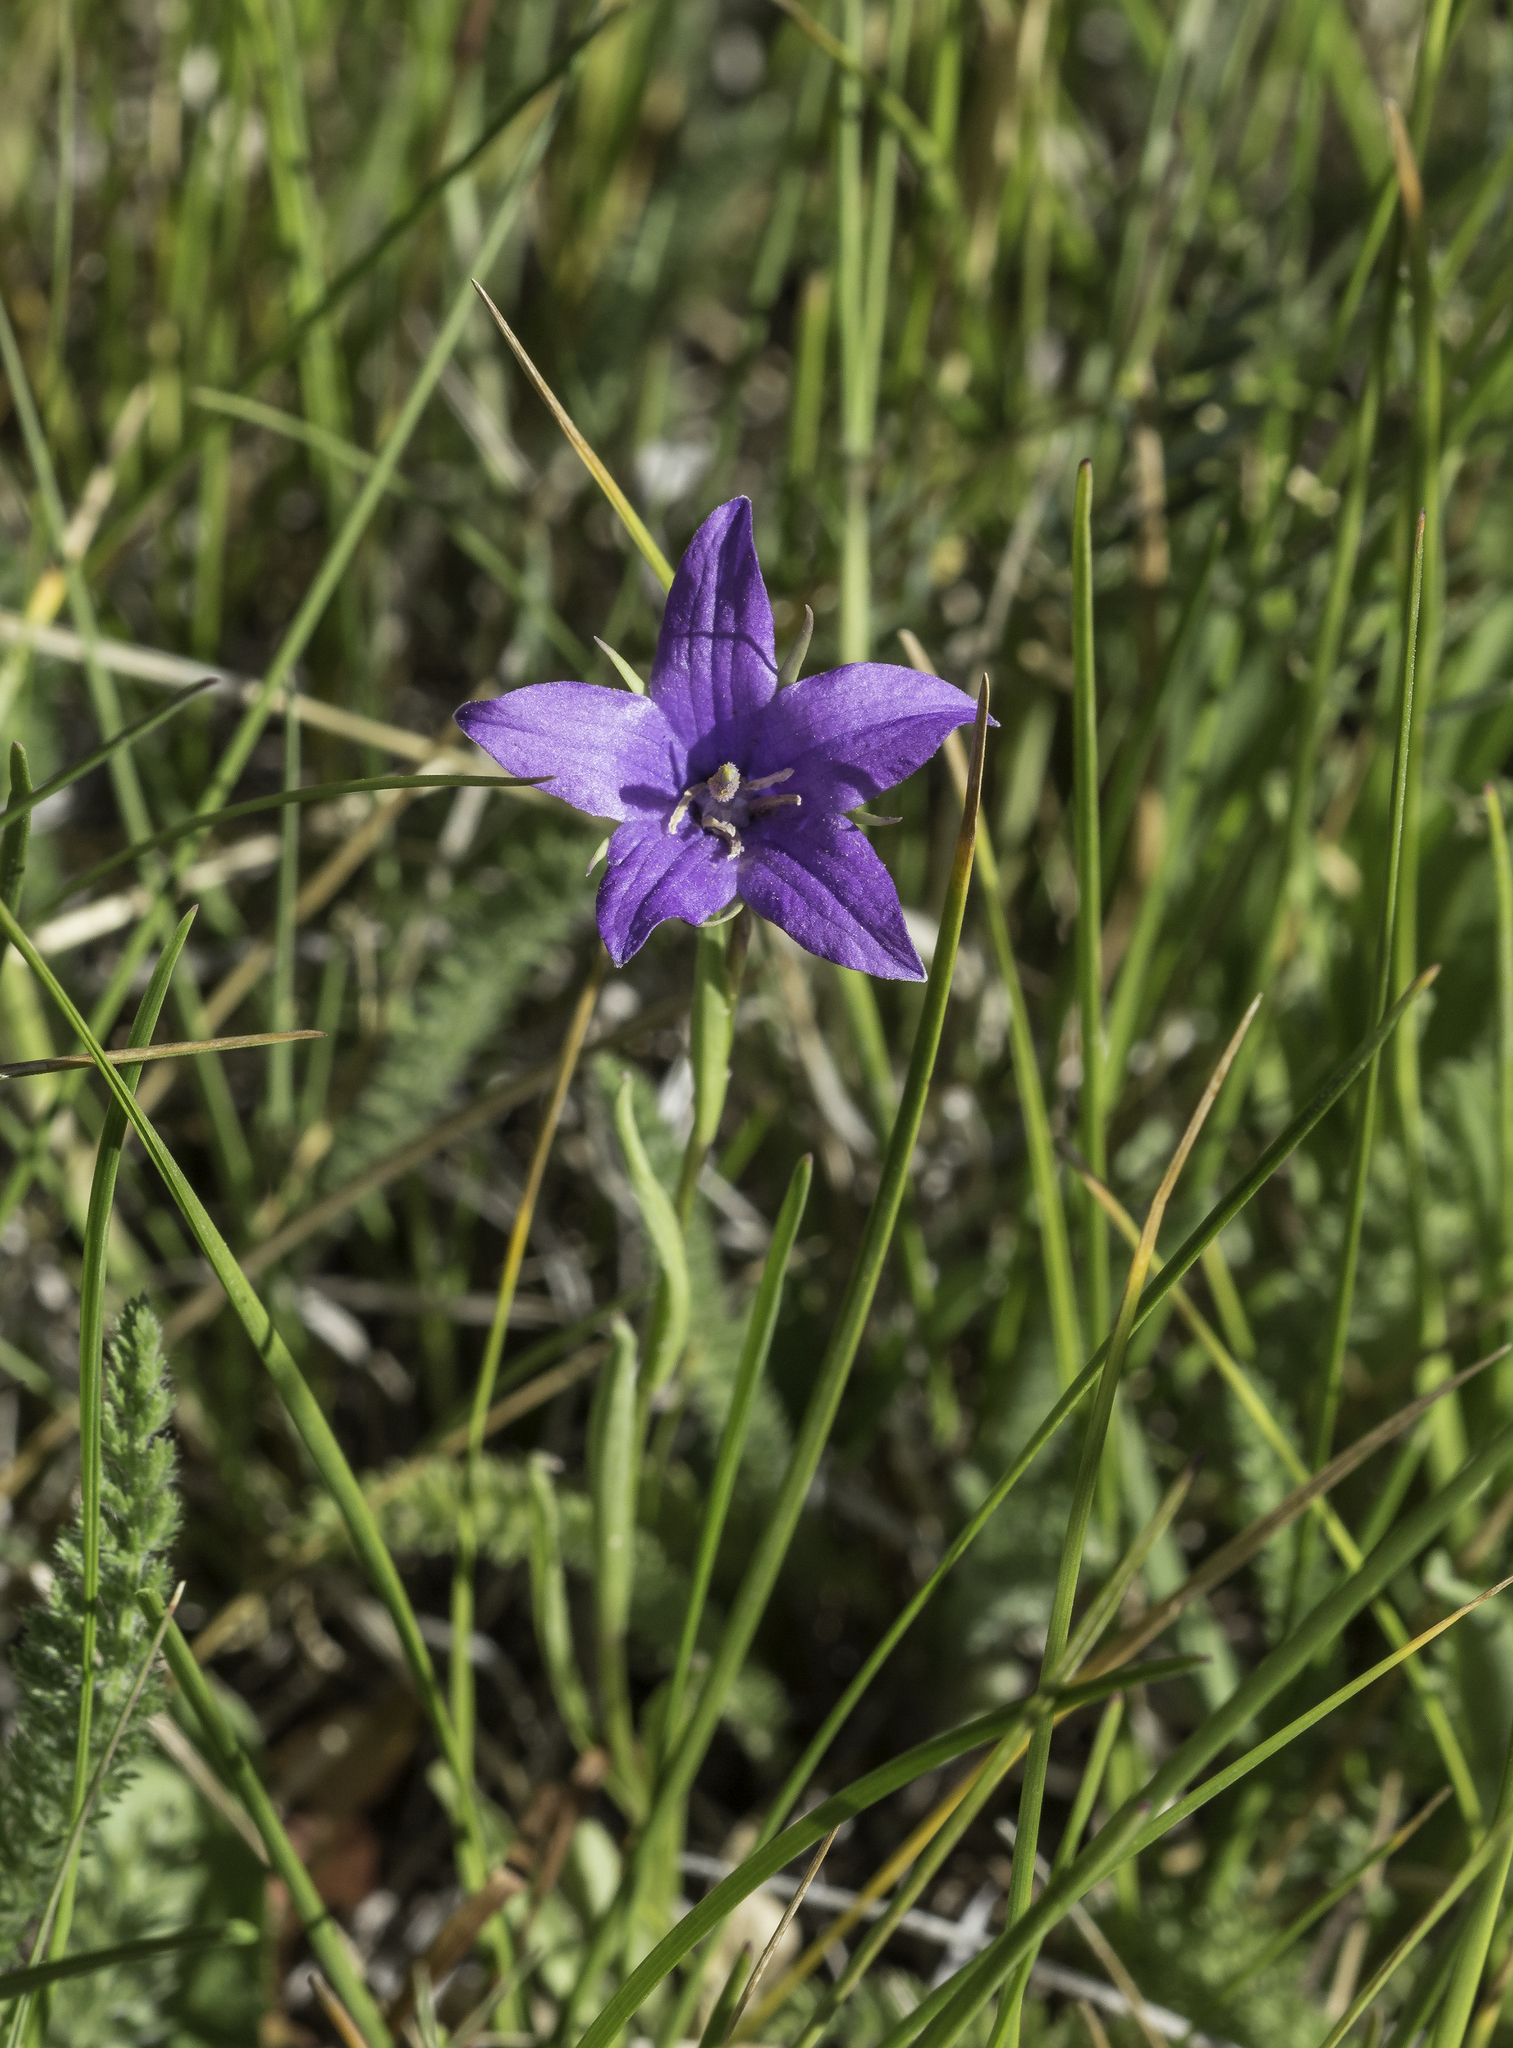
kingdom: Plantae
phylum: Tracheophyta
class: Magnoliopsida
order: Asterales
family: Campanulaceae
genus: Campanula
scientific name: Campanula parryi
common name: Rocky mountain bellflower
